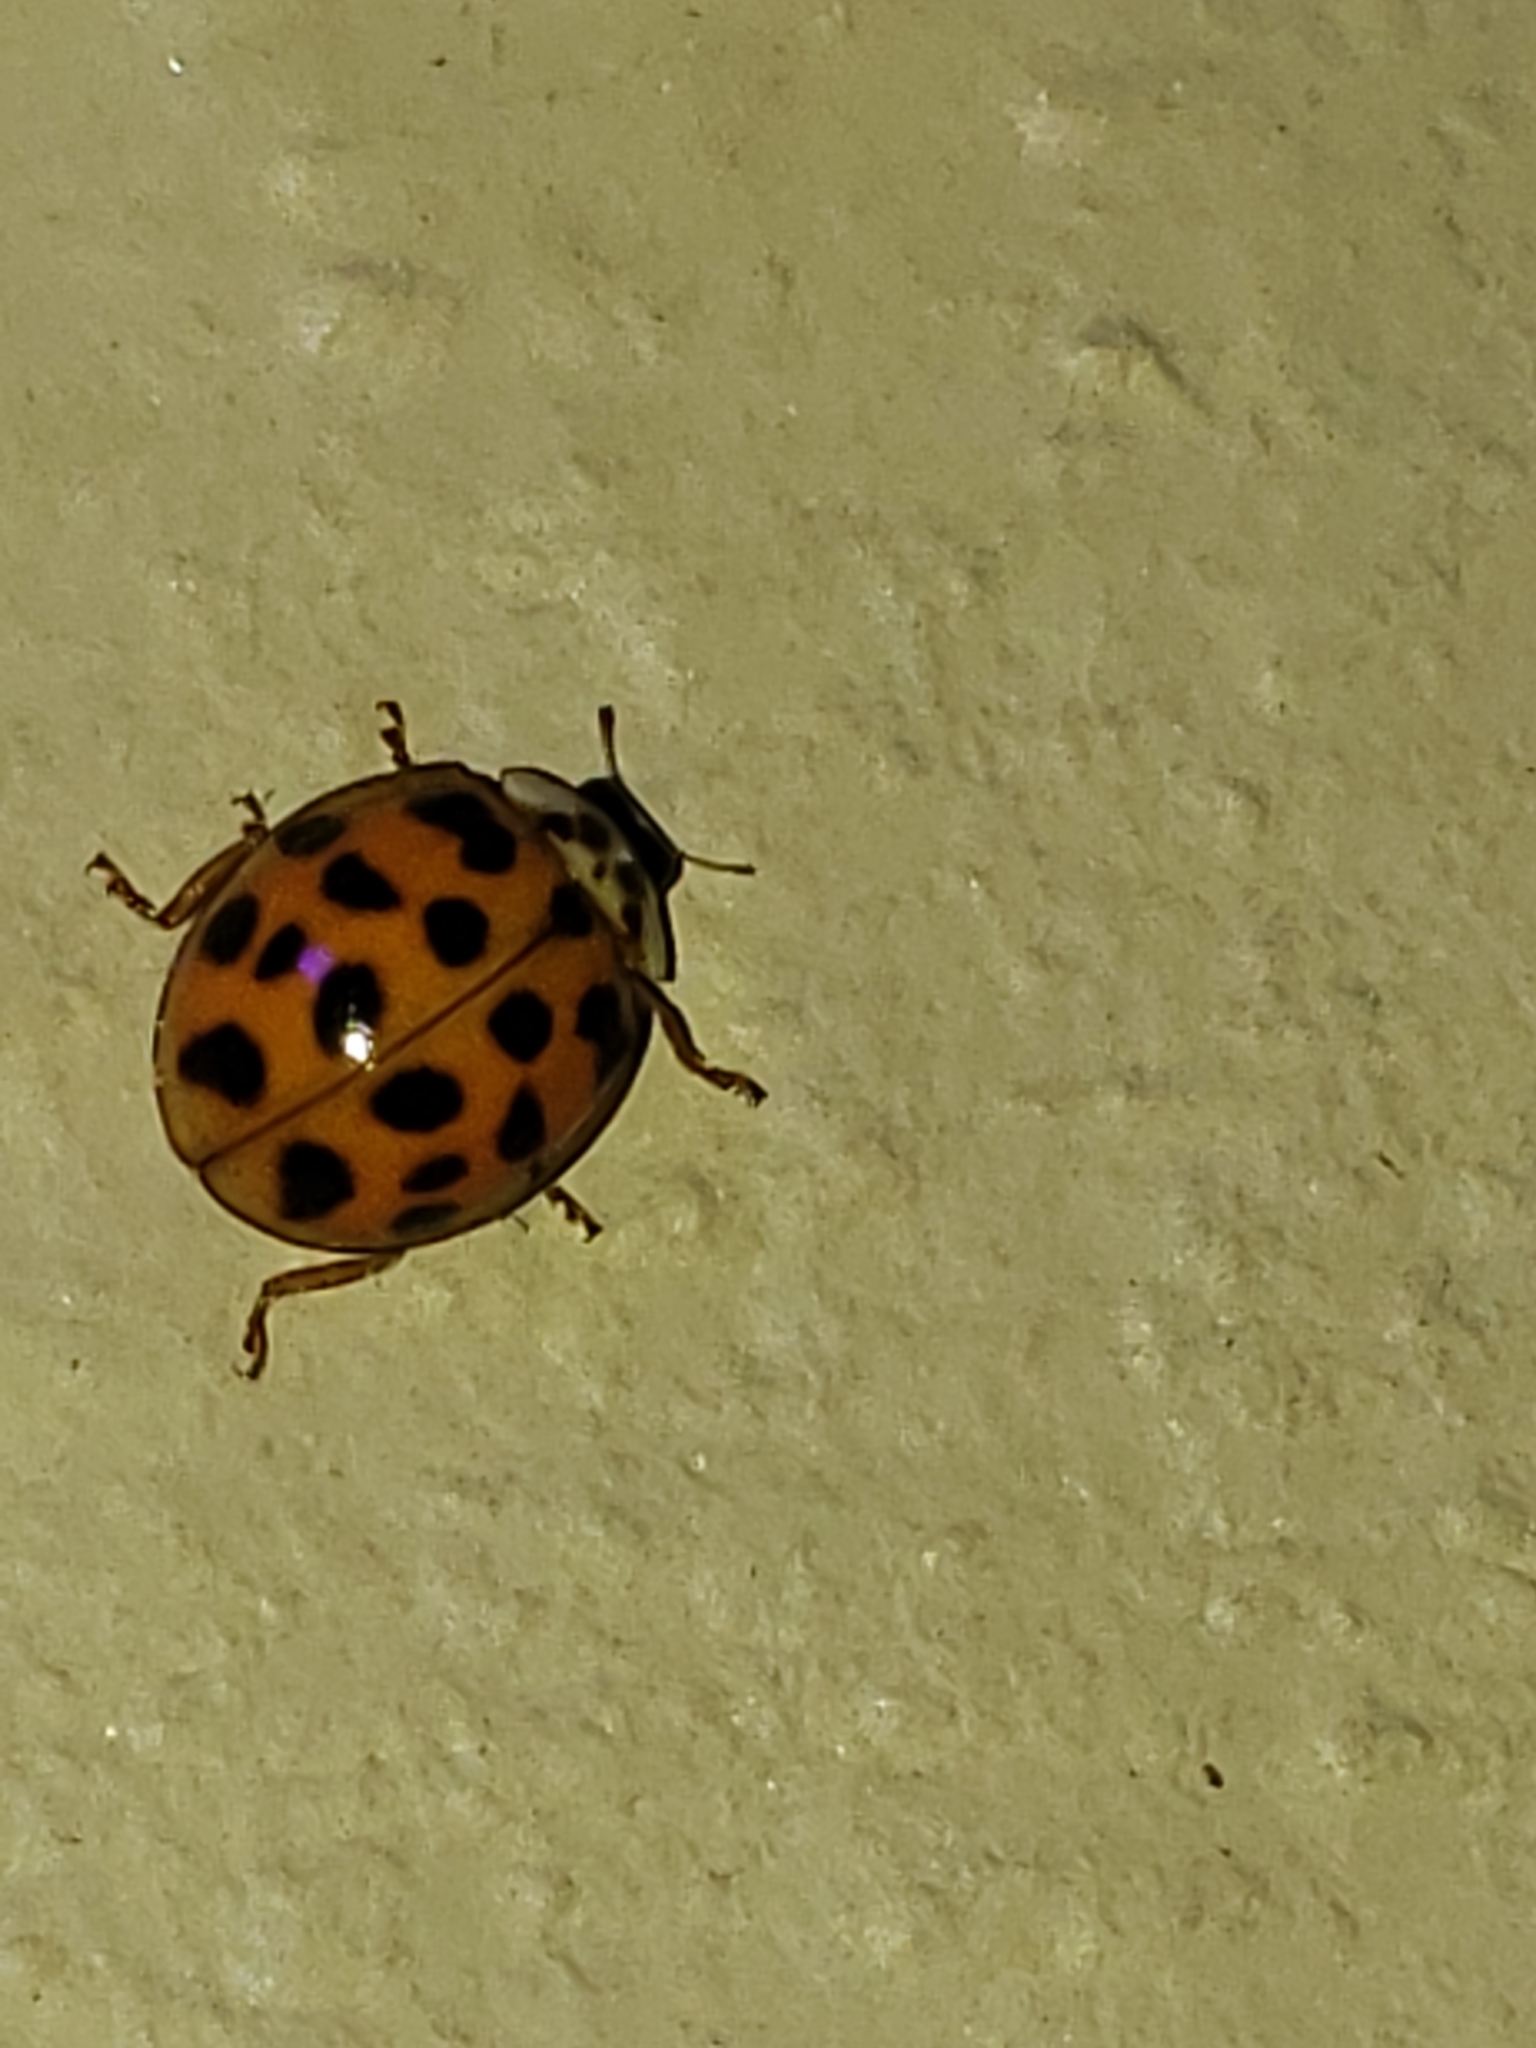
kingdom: Animalia
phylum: Arthropoda
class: Insecta
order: Coleoptera
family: Coccinellidae
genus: Harmonia
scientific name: Harmonia axyridis
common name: Harlequin ladybird
